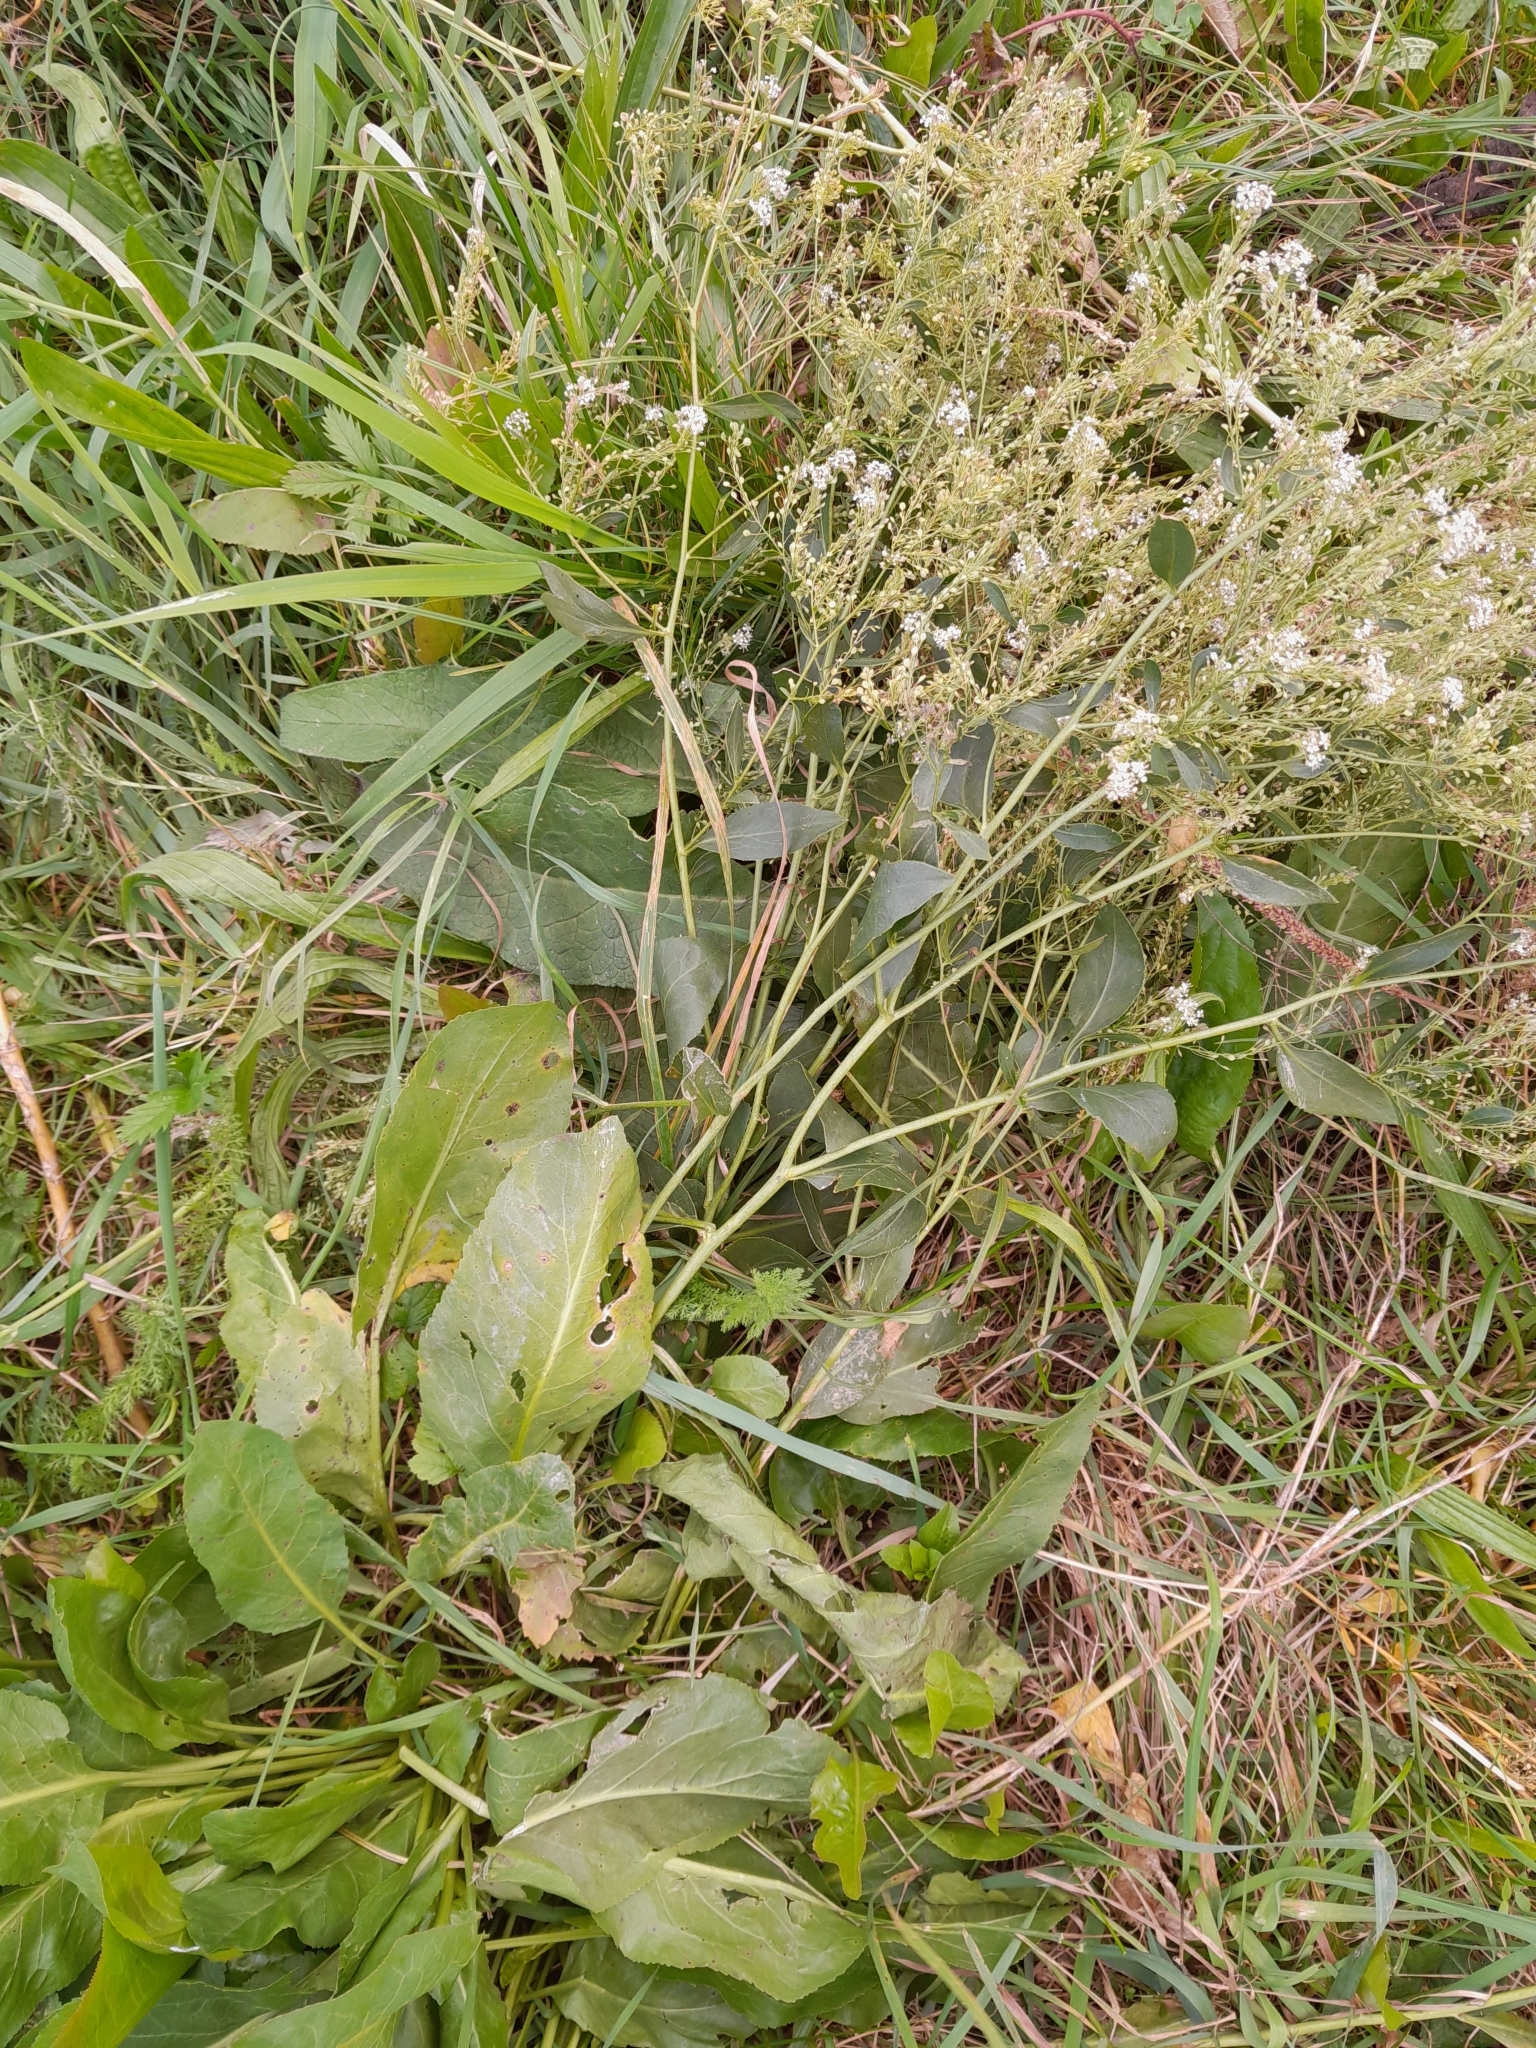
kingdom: Plantae
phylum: Tracheophyta
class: Magnoliopsida
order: Brassicales
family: Brassicaceae
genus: Lepidium
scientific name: Lepidium latifolium
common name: Dittander
